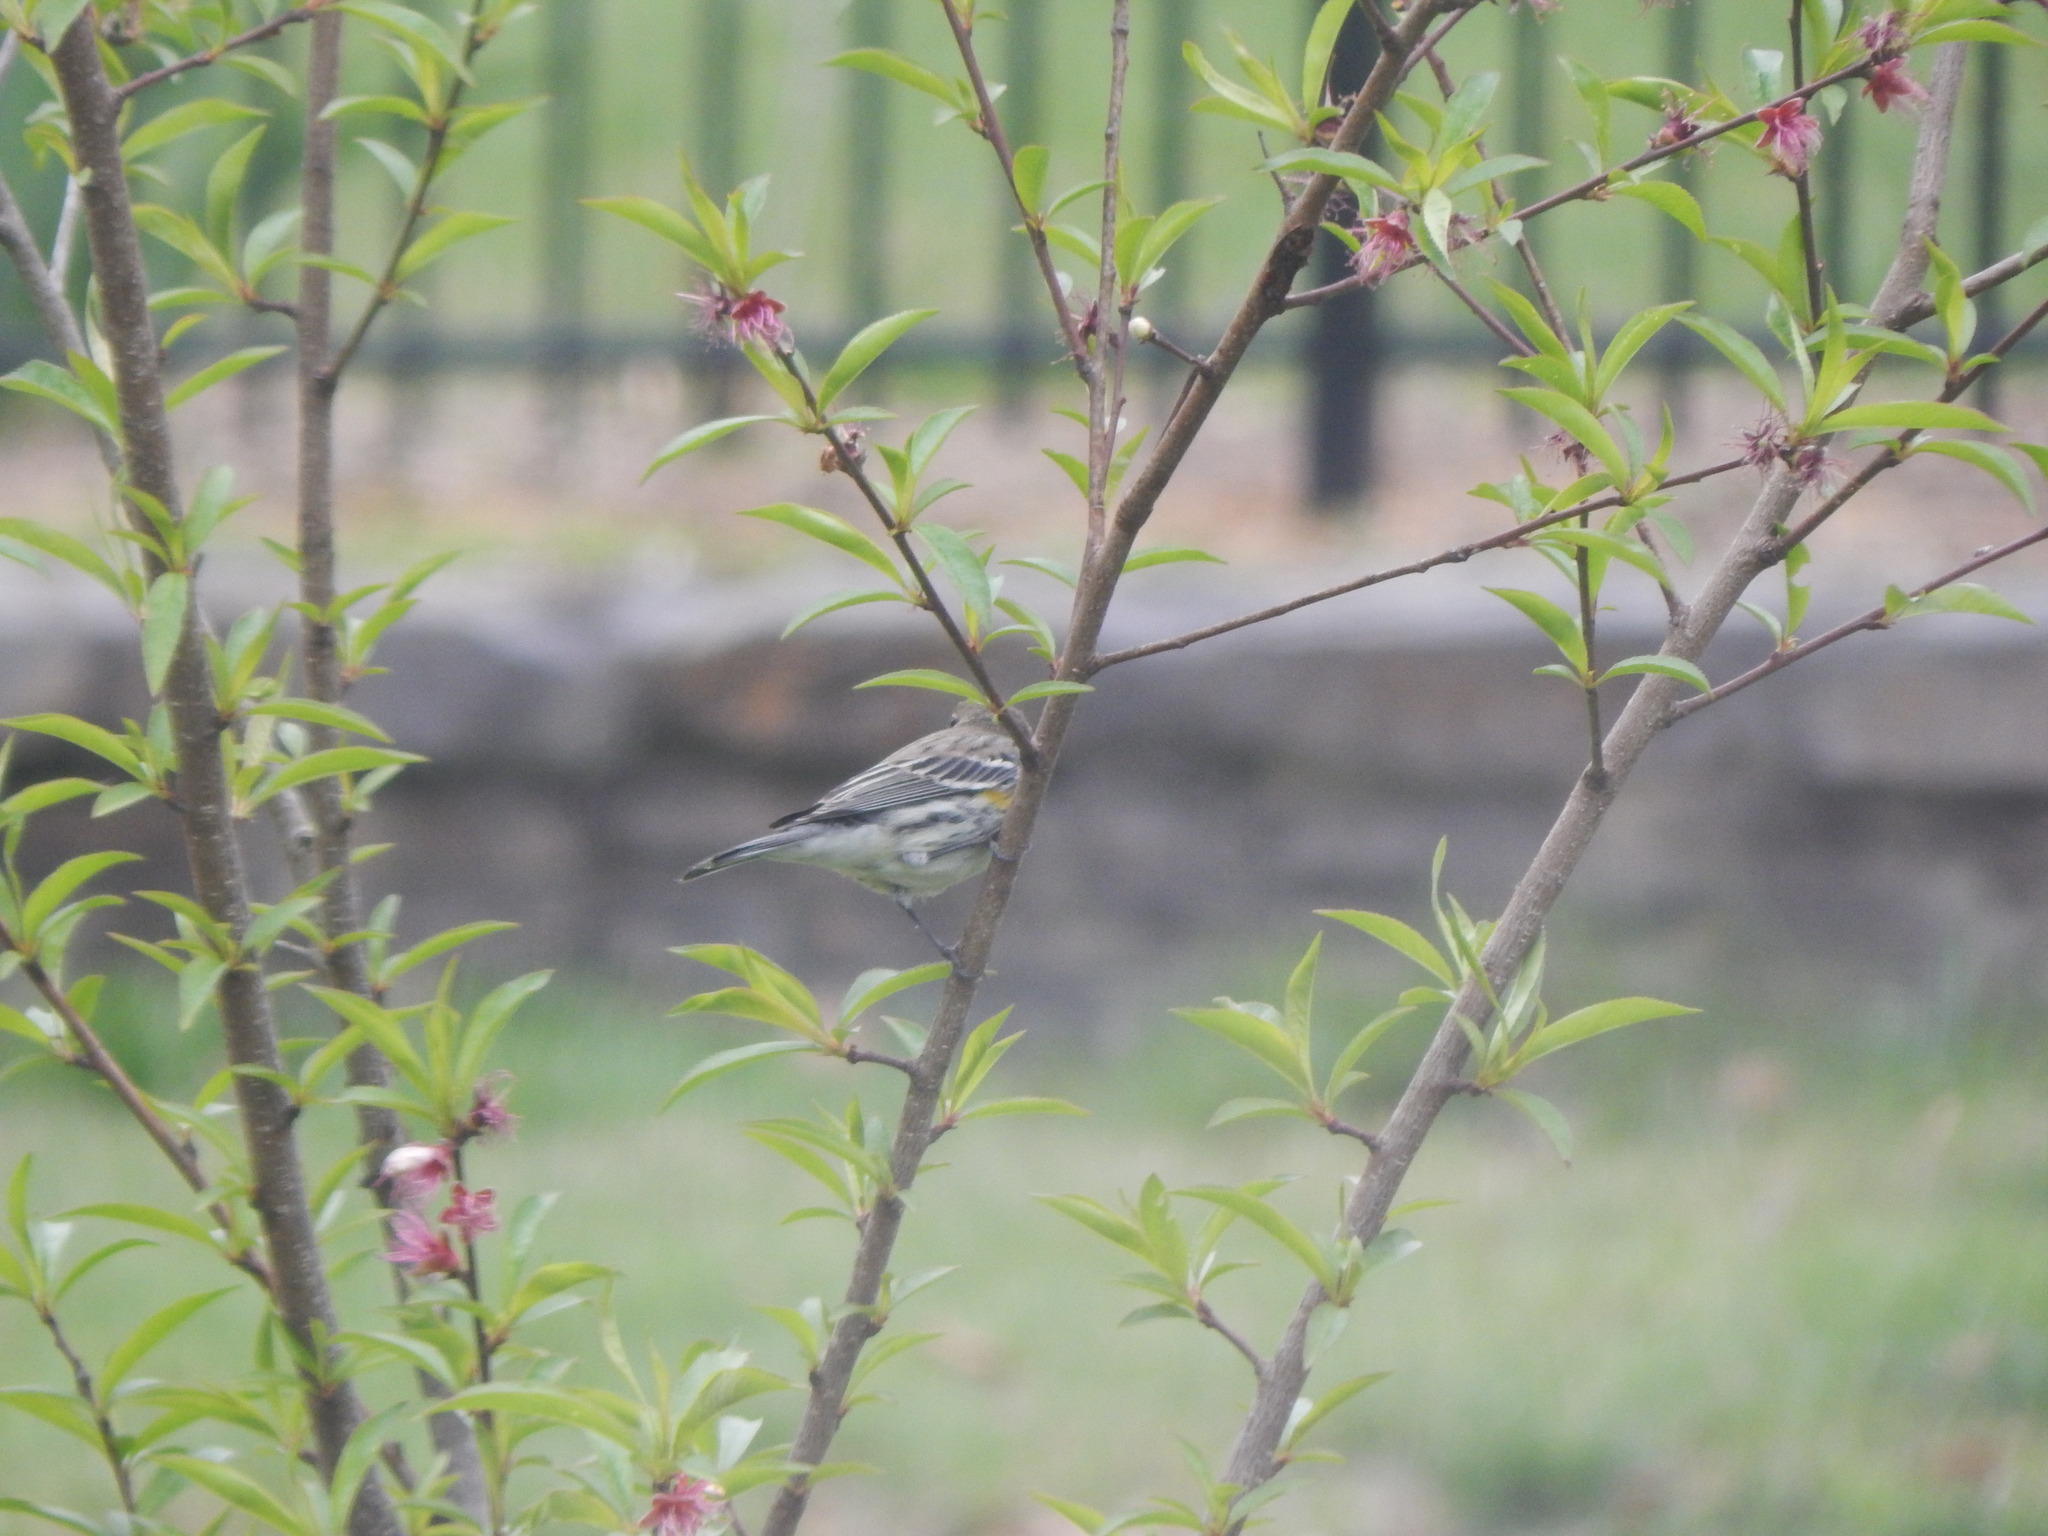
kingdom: Animalia
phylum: Chordata
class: Aves
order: Passeriformes
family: Parulidae
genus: Setophaga
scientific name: Setophaga coronata
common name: Myrtle warbler
